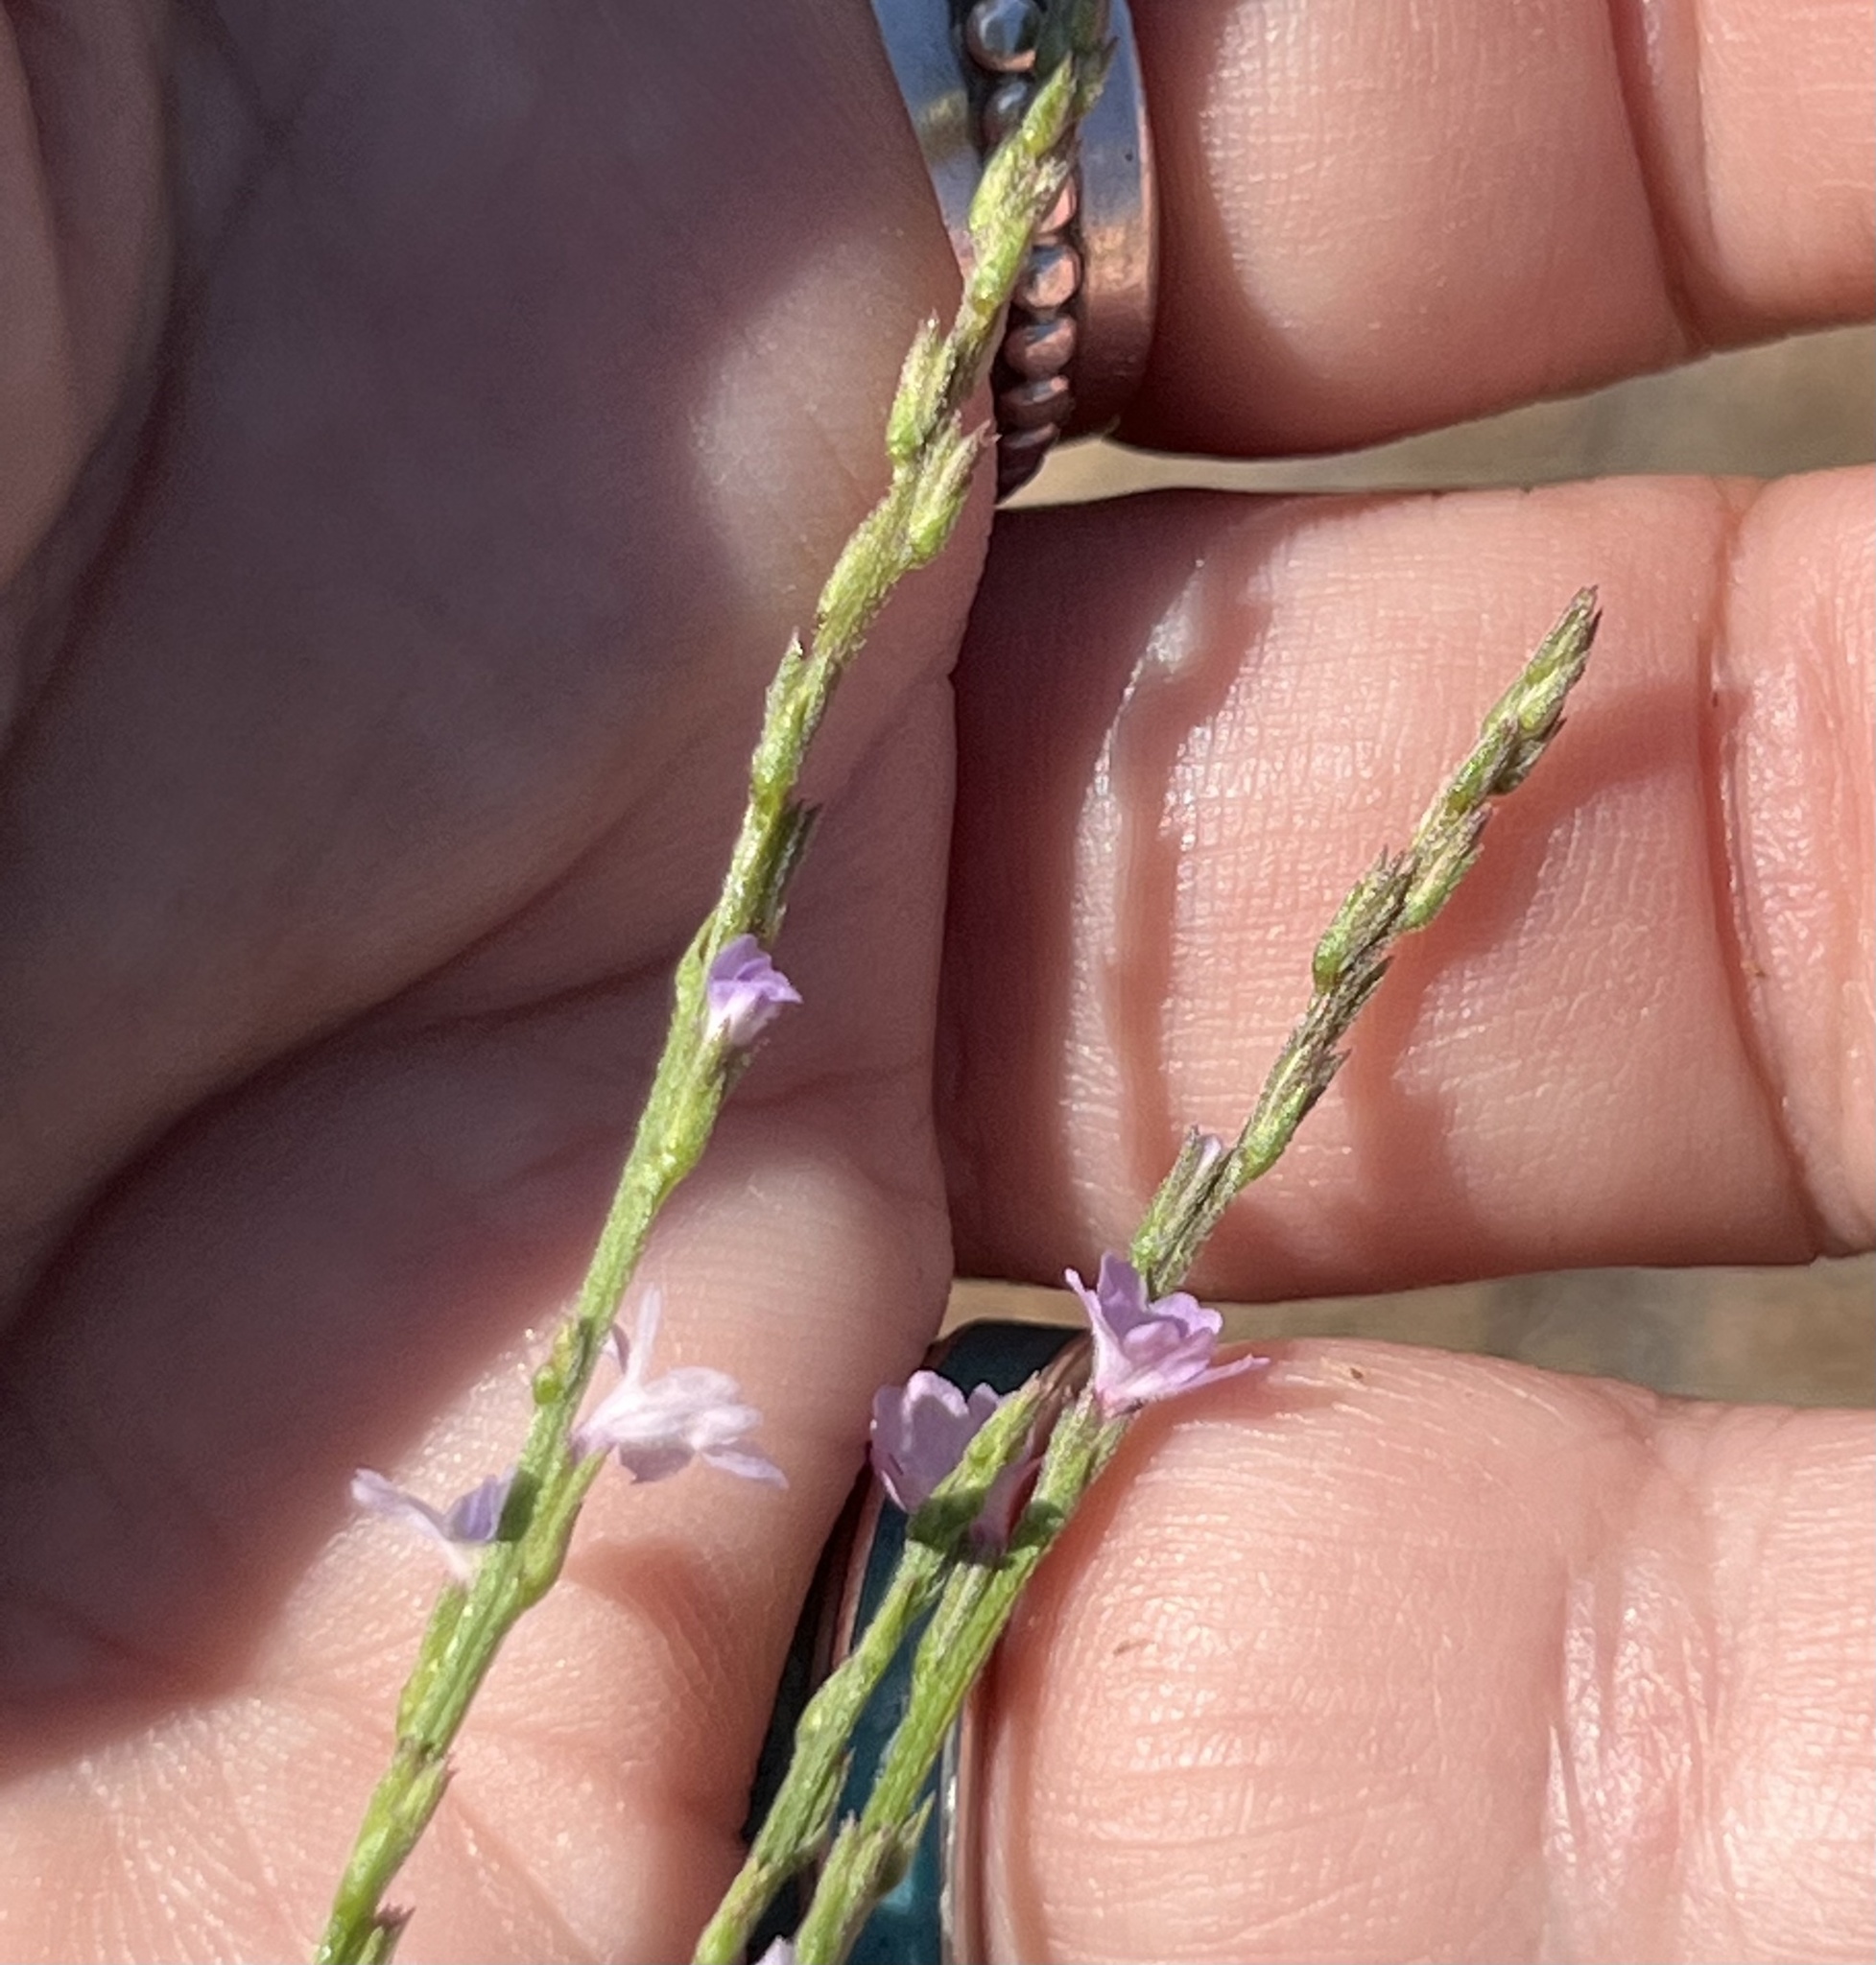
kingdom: Plantae
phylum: Tracheophyta
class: Magnoliopsida
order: Lamiales
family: Verbenaceae
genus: Verbena
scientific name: Verbena halei
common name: Texas vervain
